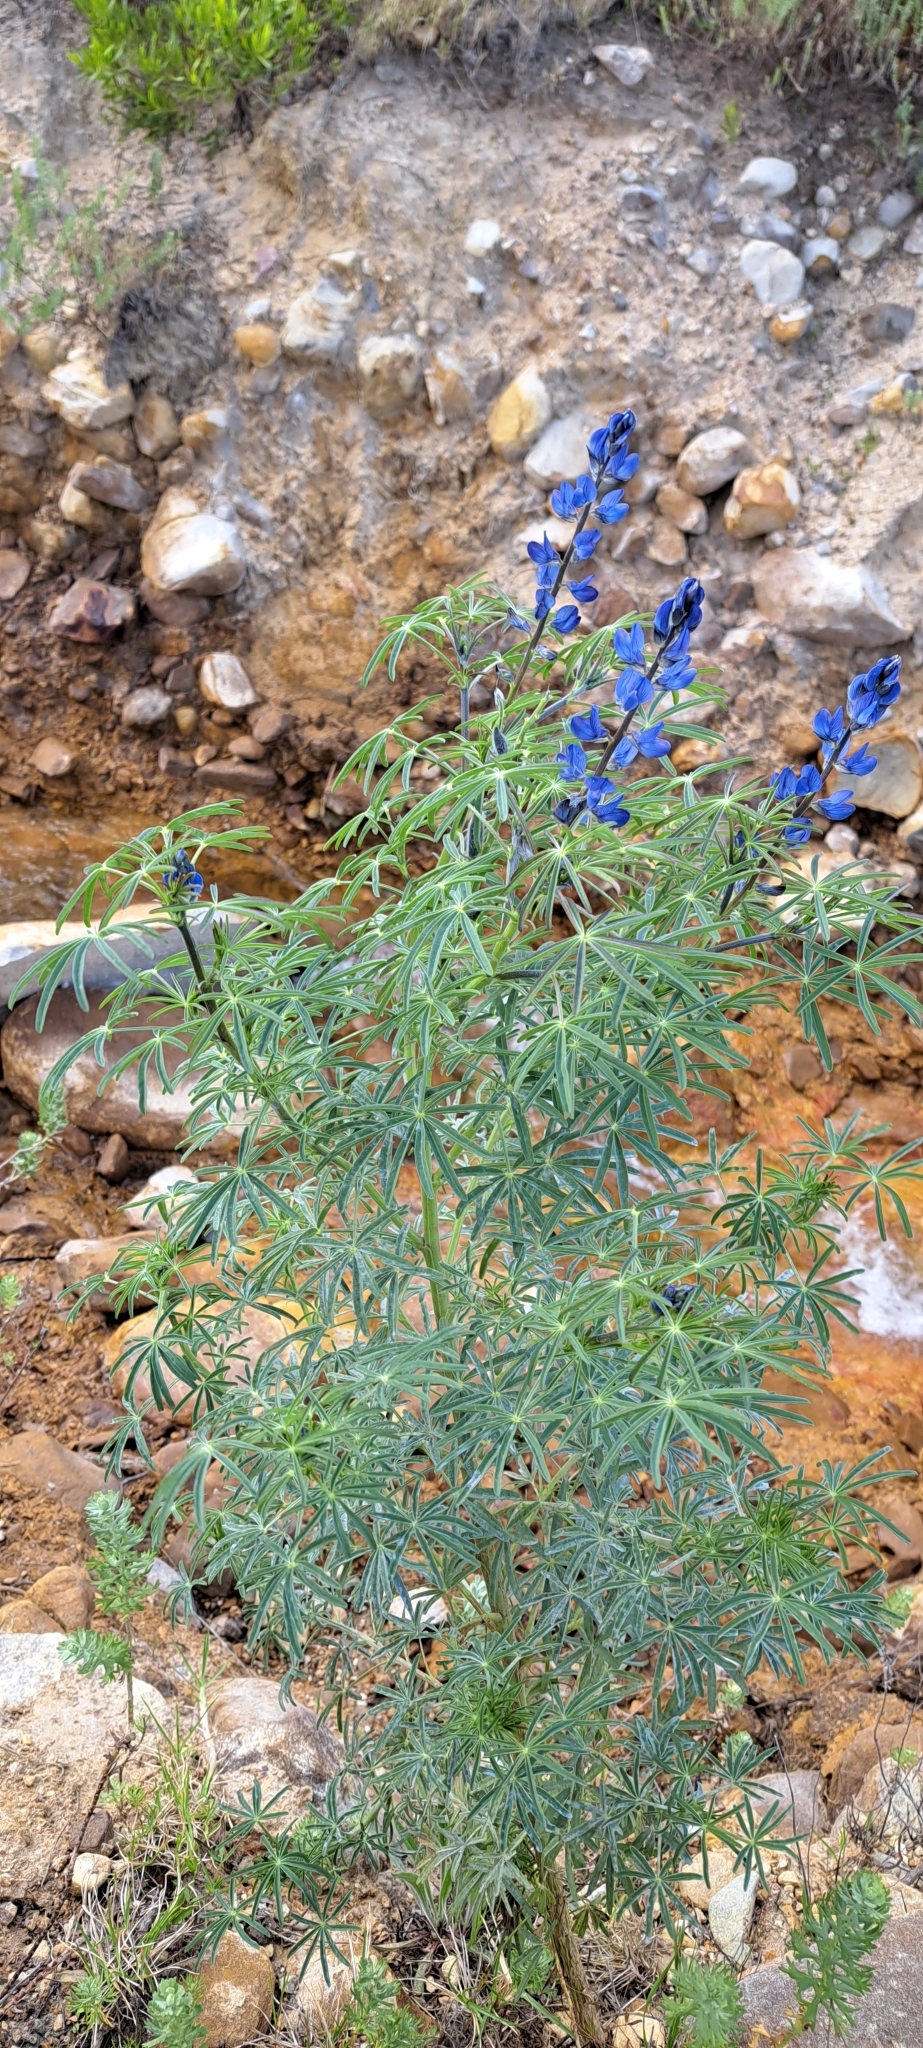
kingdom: Plantae
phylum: Tracheophyta
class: Magnoliopsida
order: Fabales
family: Fabaceae
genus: Lupinus
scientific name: Lupinus angustifolius
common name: Narrow-leaved lupin
